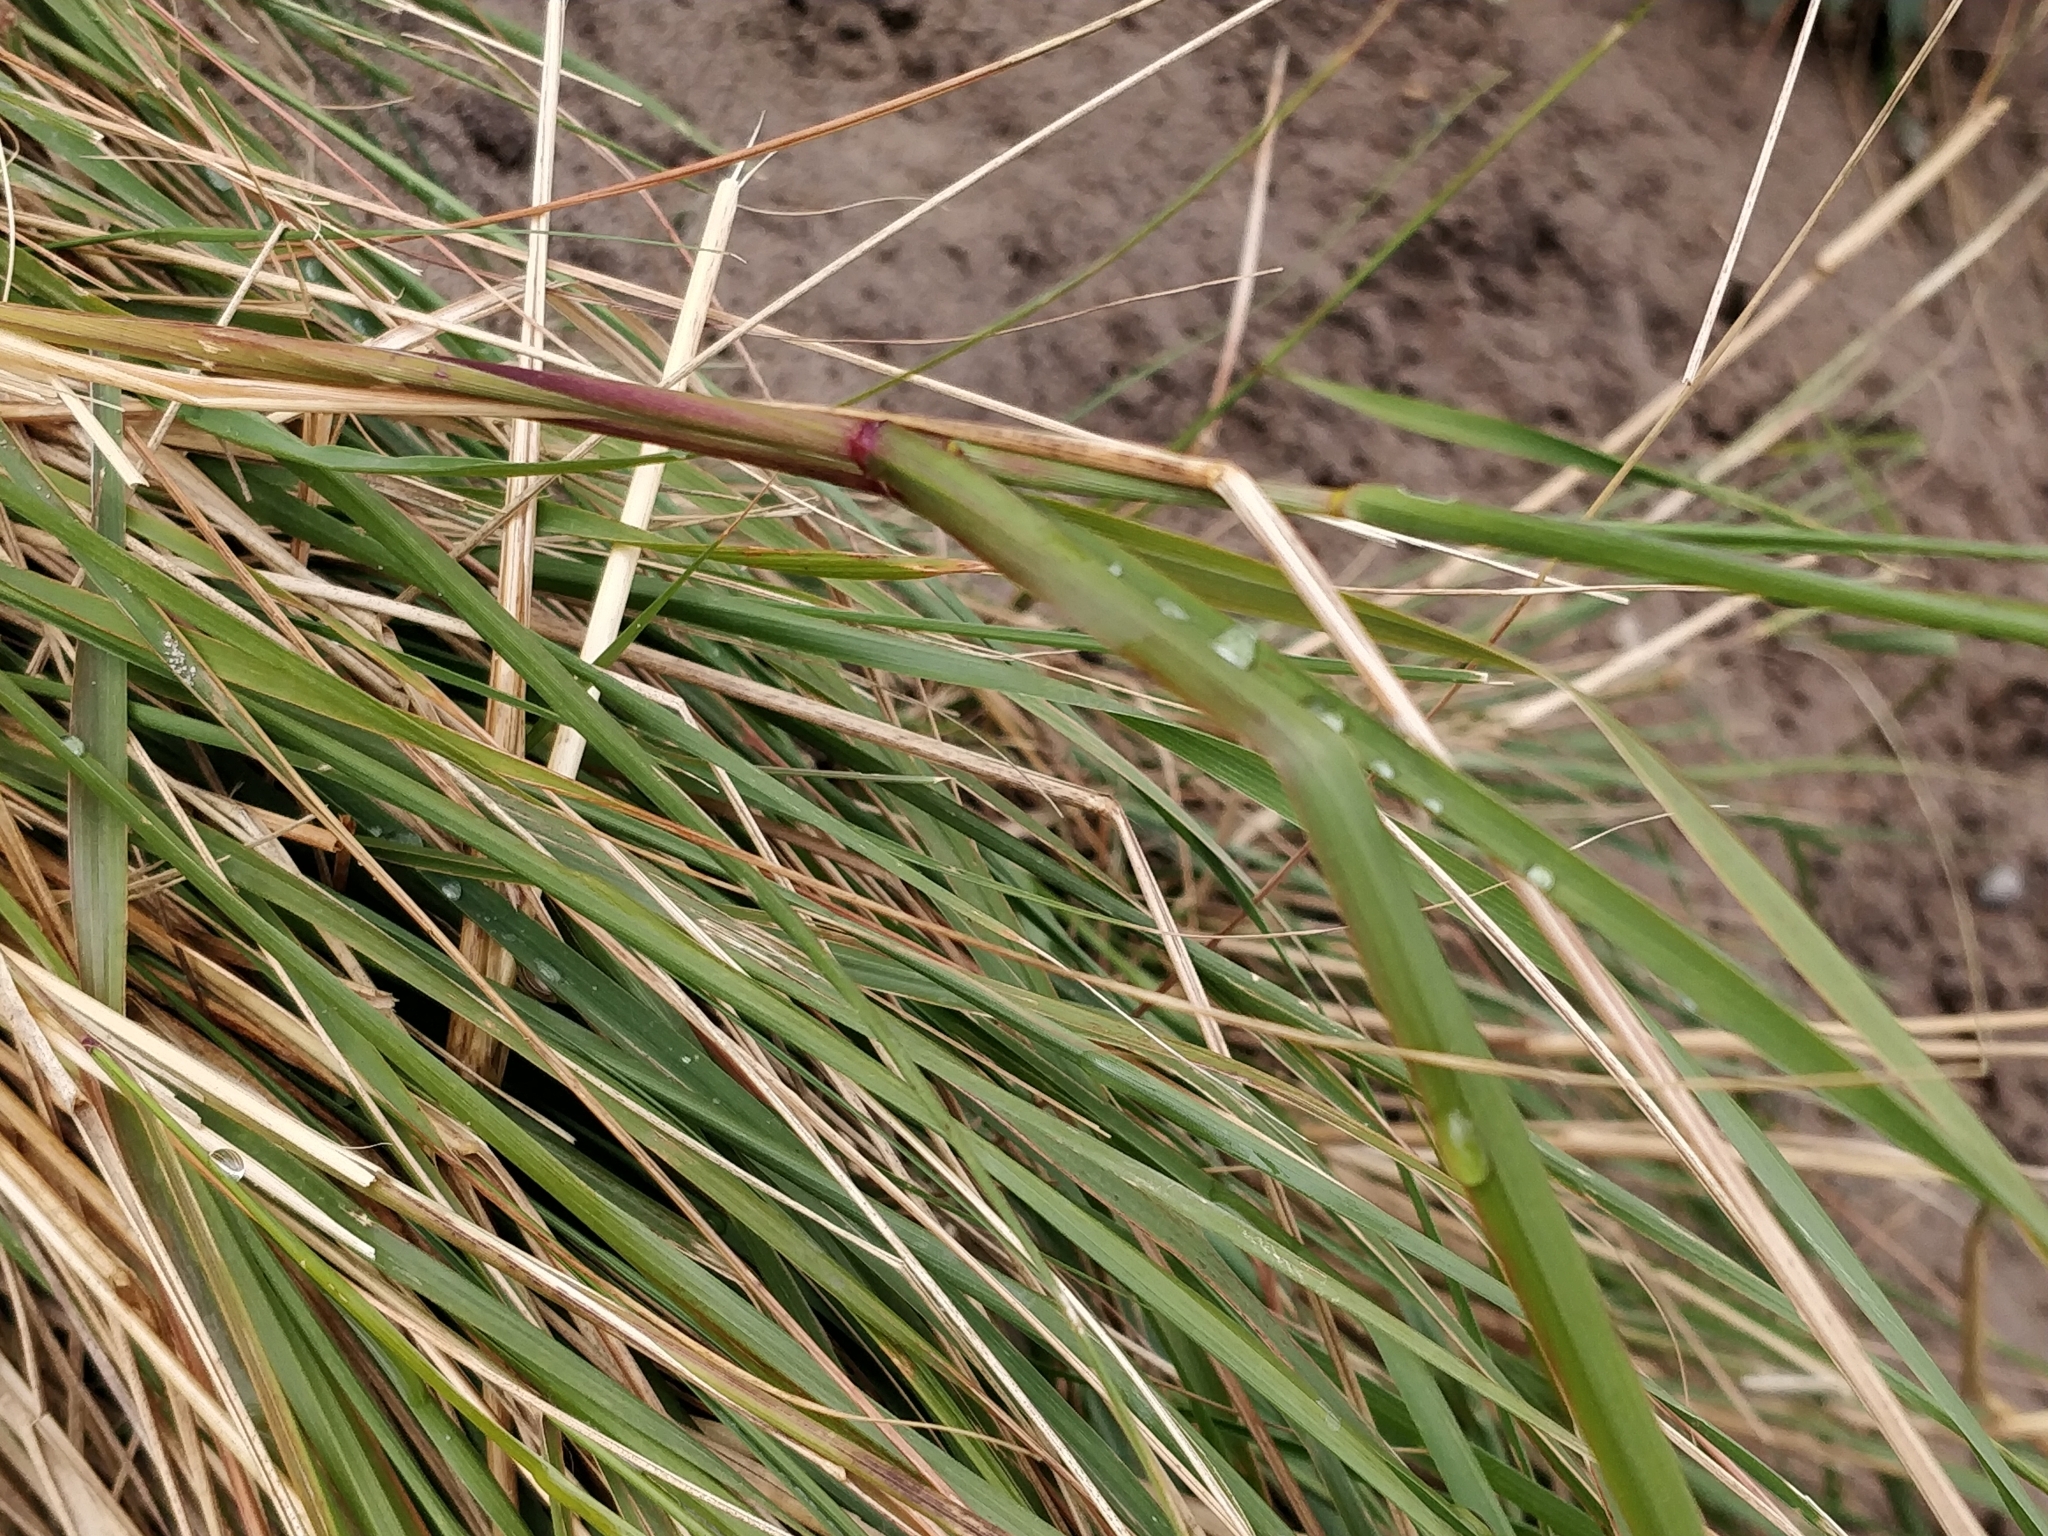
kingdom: Plantae
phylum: Tracheophyta
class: Liliopsida
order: Poales
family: Poaceae
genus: Eragrostis
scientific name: Eragrostis curvula
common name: African love-grass
